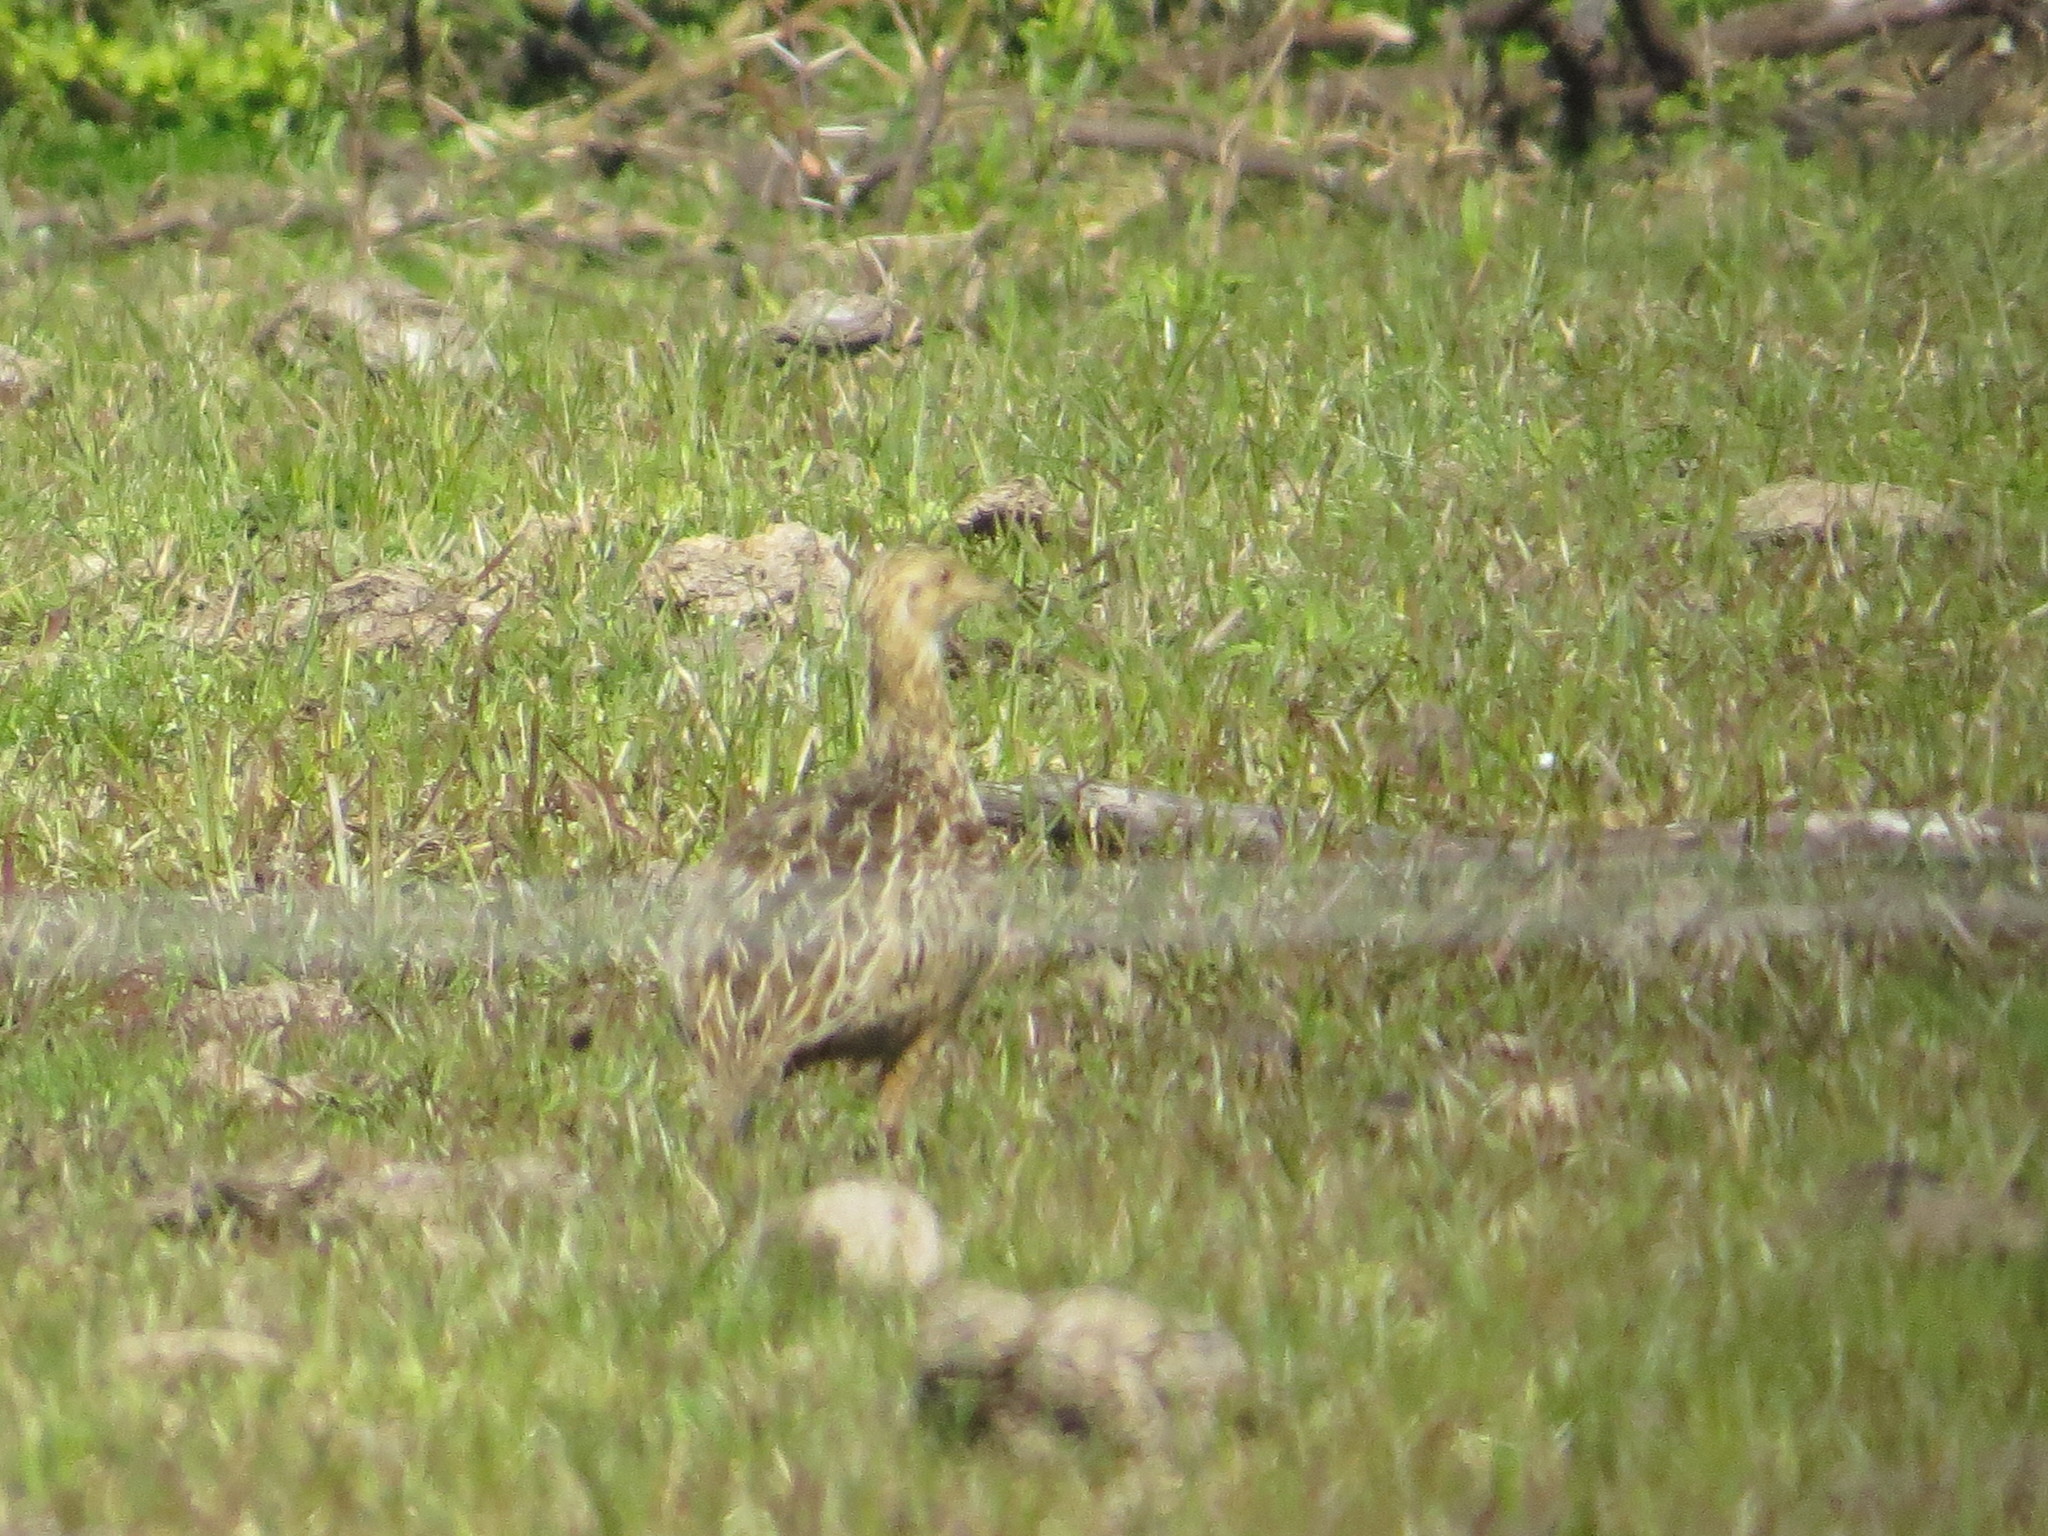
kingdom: Animalia
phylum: Chordata
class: Aves
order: Tinamiformes
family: Tinamidae
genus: Nothura
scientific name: Nothura maculosa
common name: Spotted nothura
